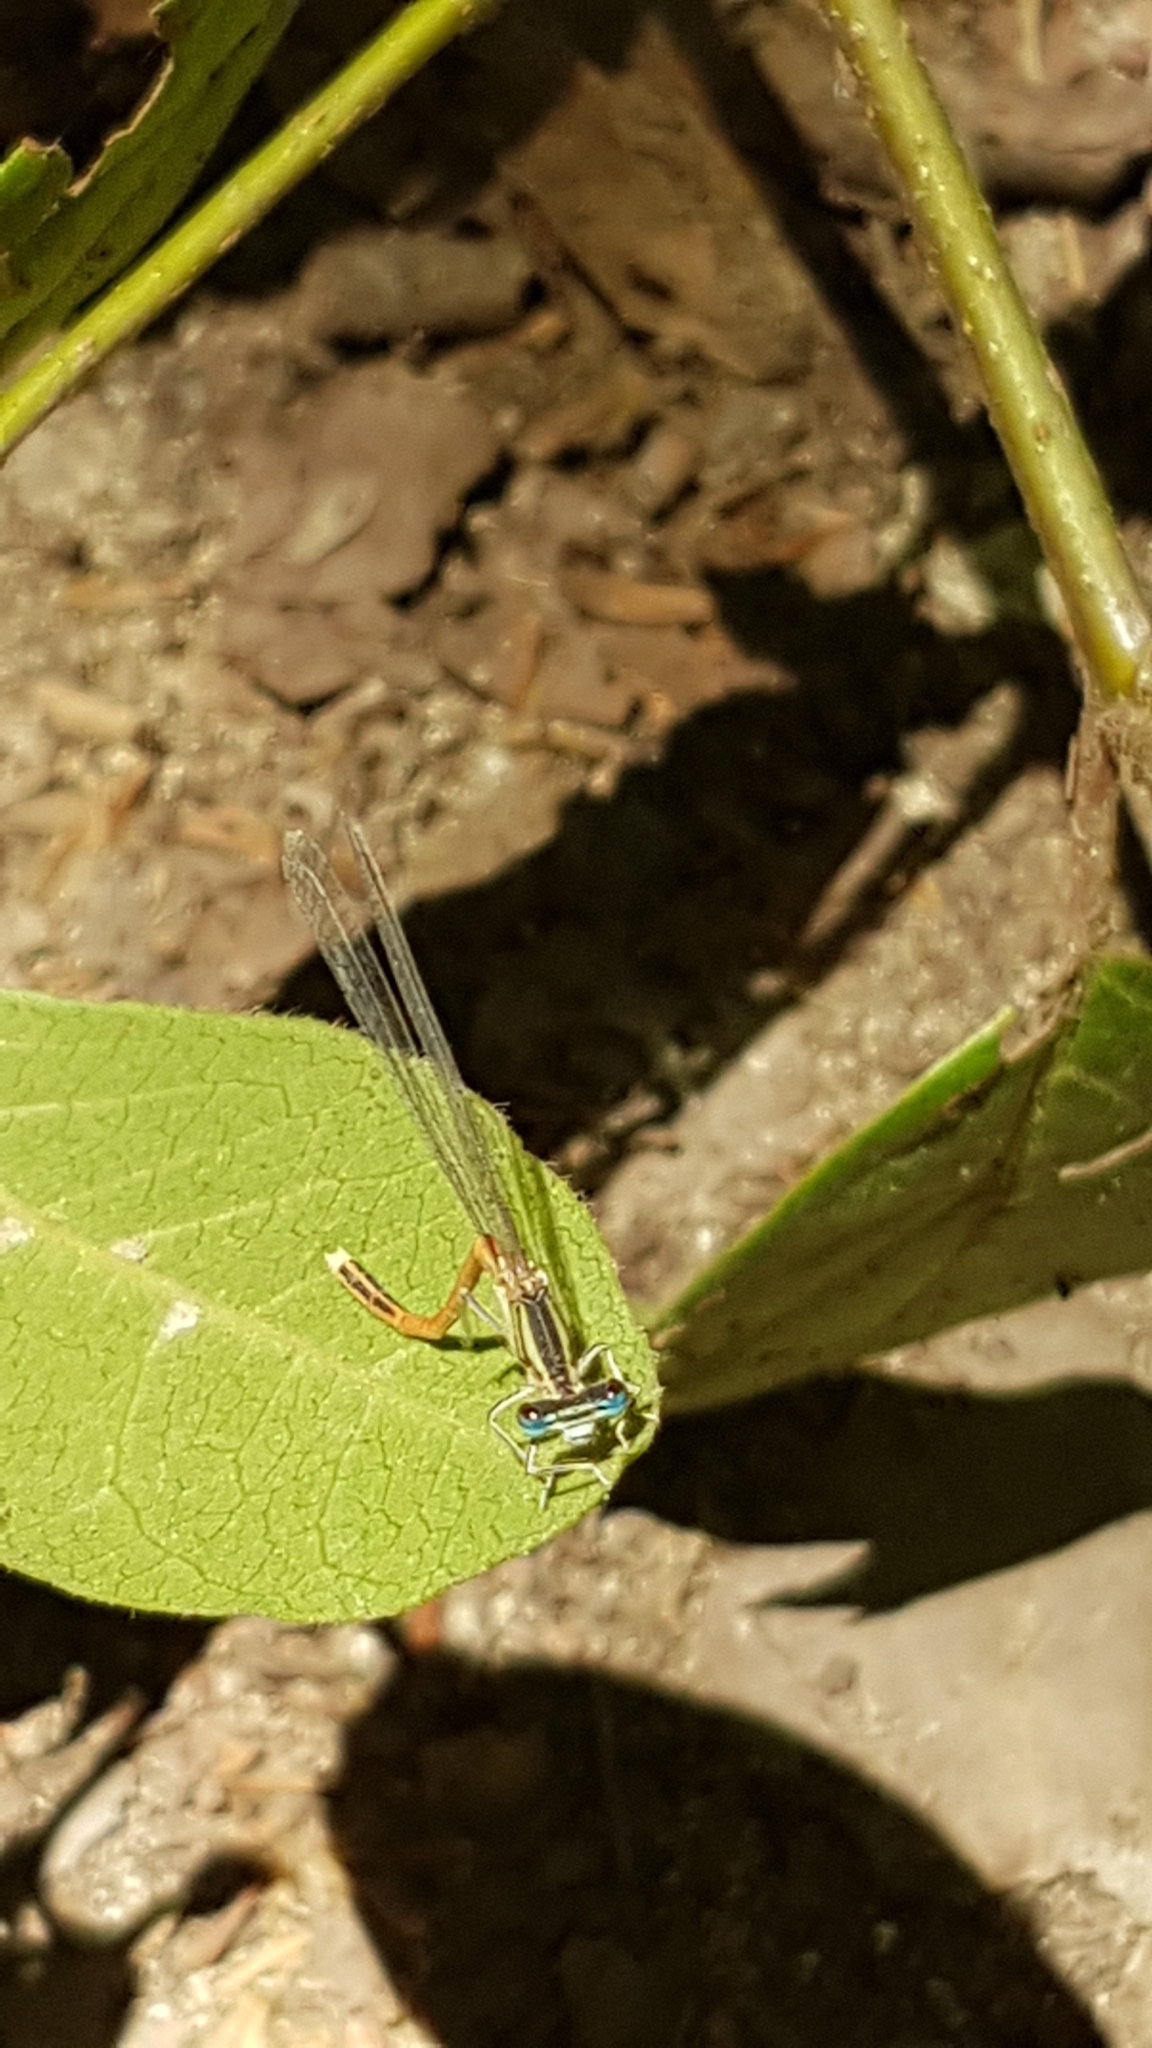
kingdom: Animalia
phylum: Arthropoda
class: Insecta
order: Odonata
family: Platycnemididae
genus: Platycnemis
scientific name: Platycnemis acutipennis
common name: Orange featherleg
